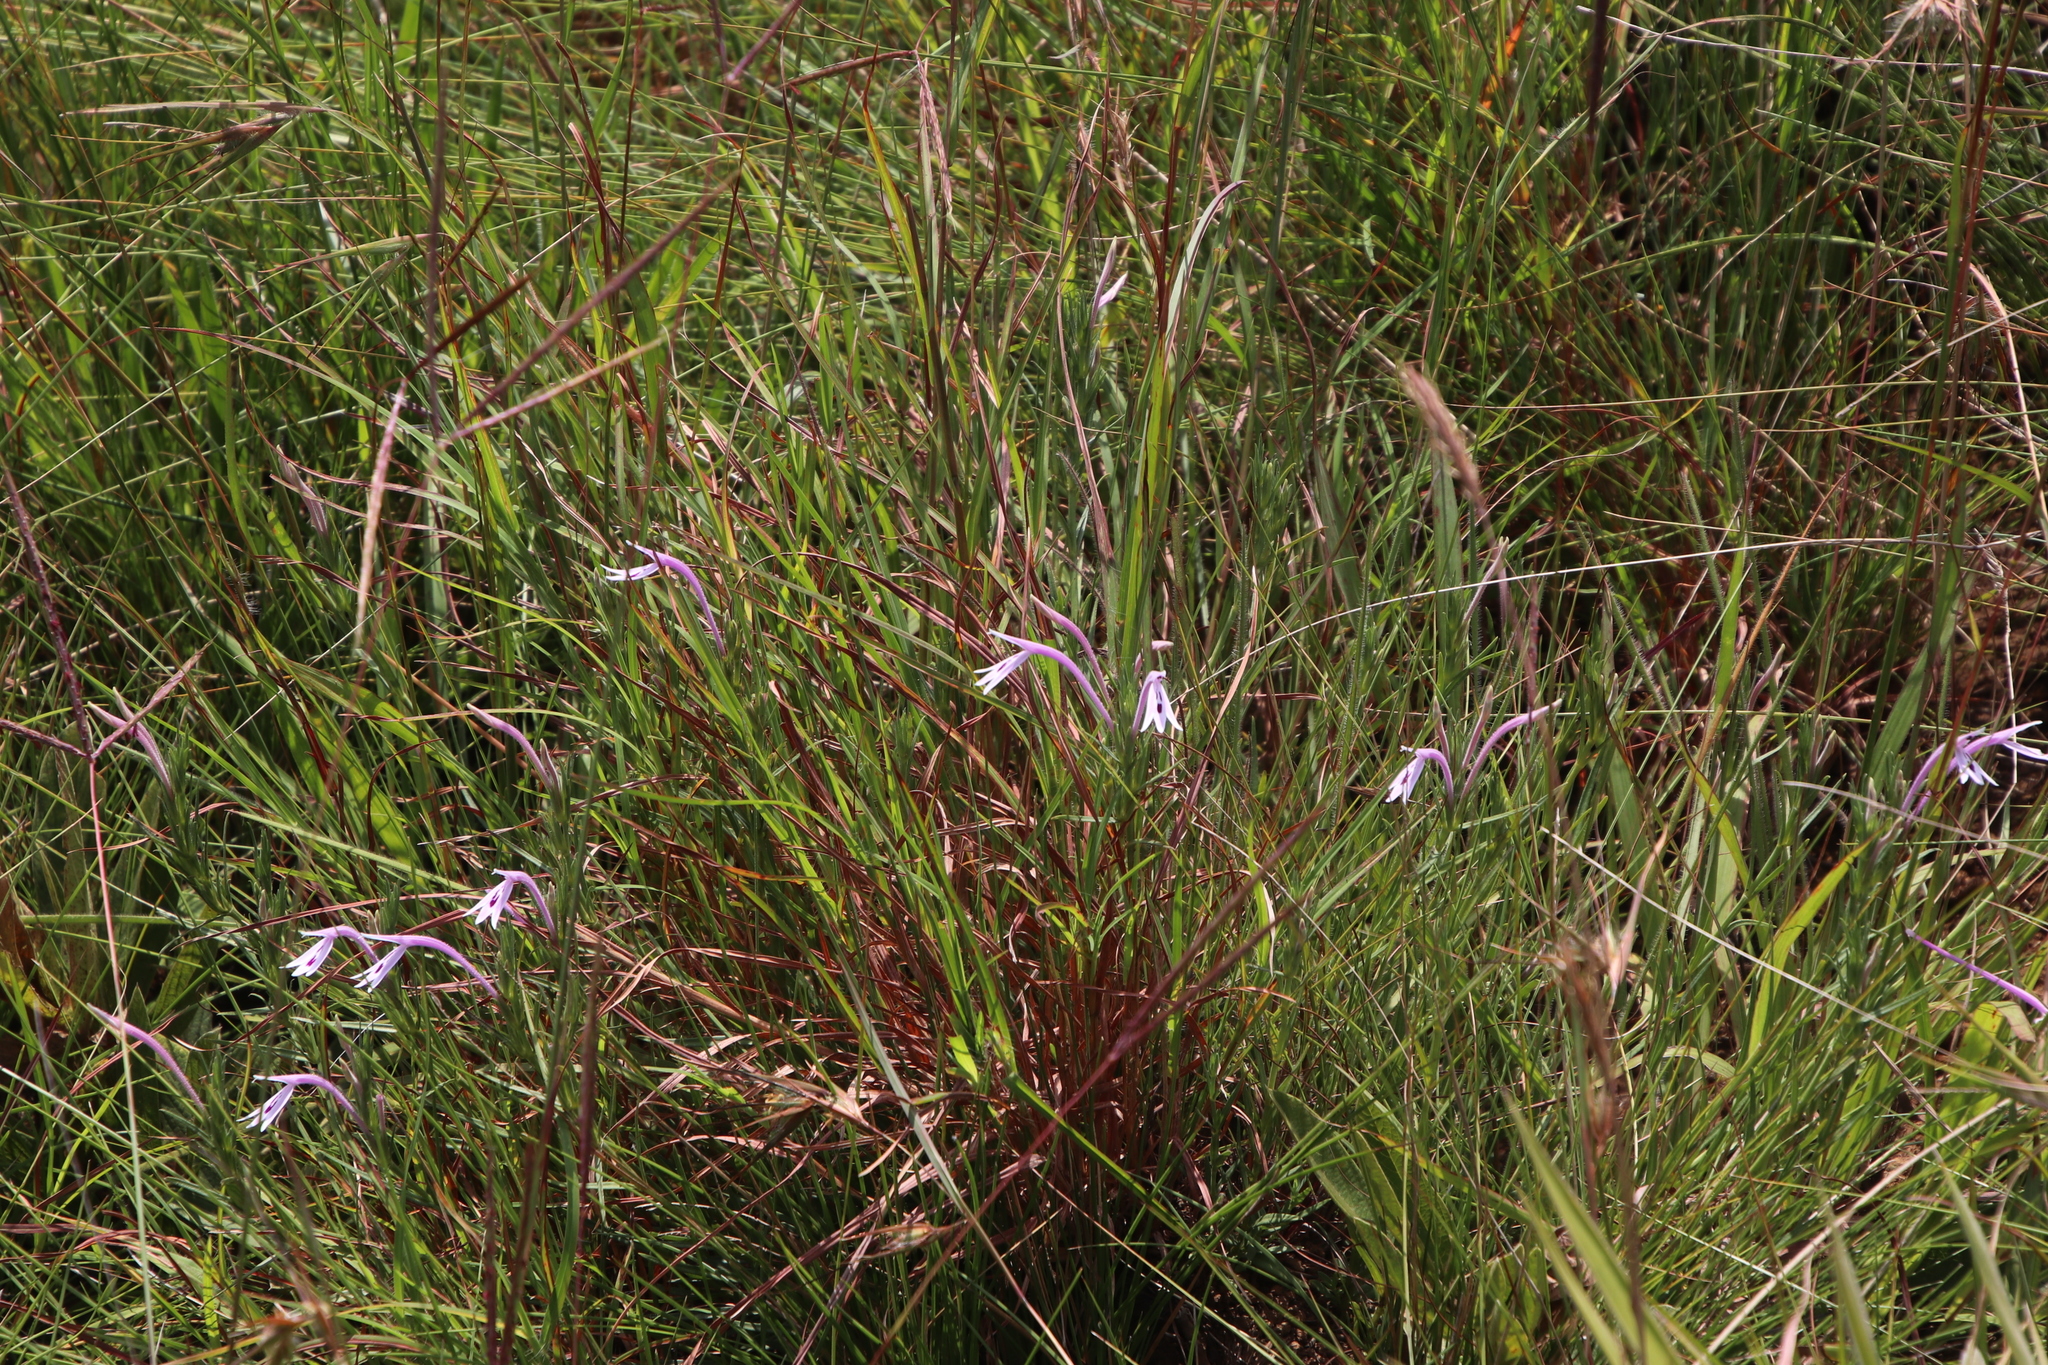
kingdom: Plantae
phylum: Tracheophyta
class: Magnoliopsida
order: Lamiales
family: Acanthaceae
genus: Justicia
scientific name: Justicia linifolia
